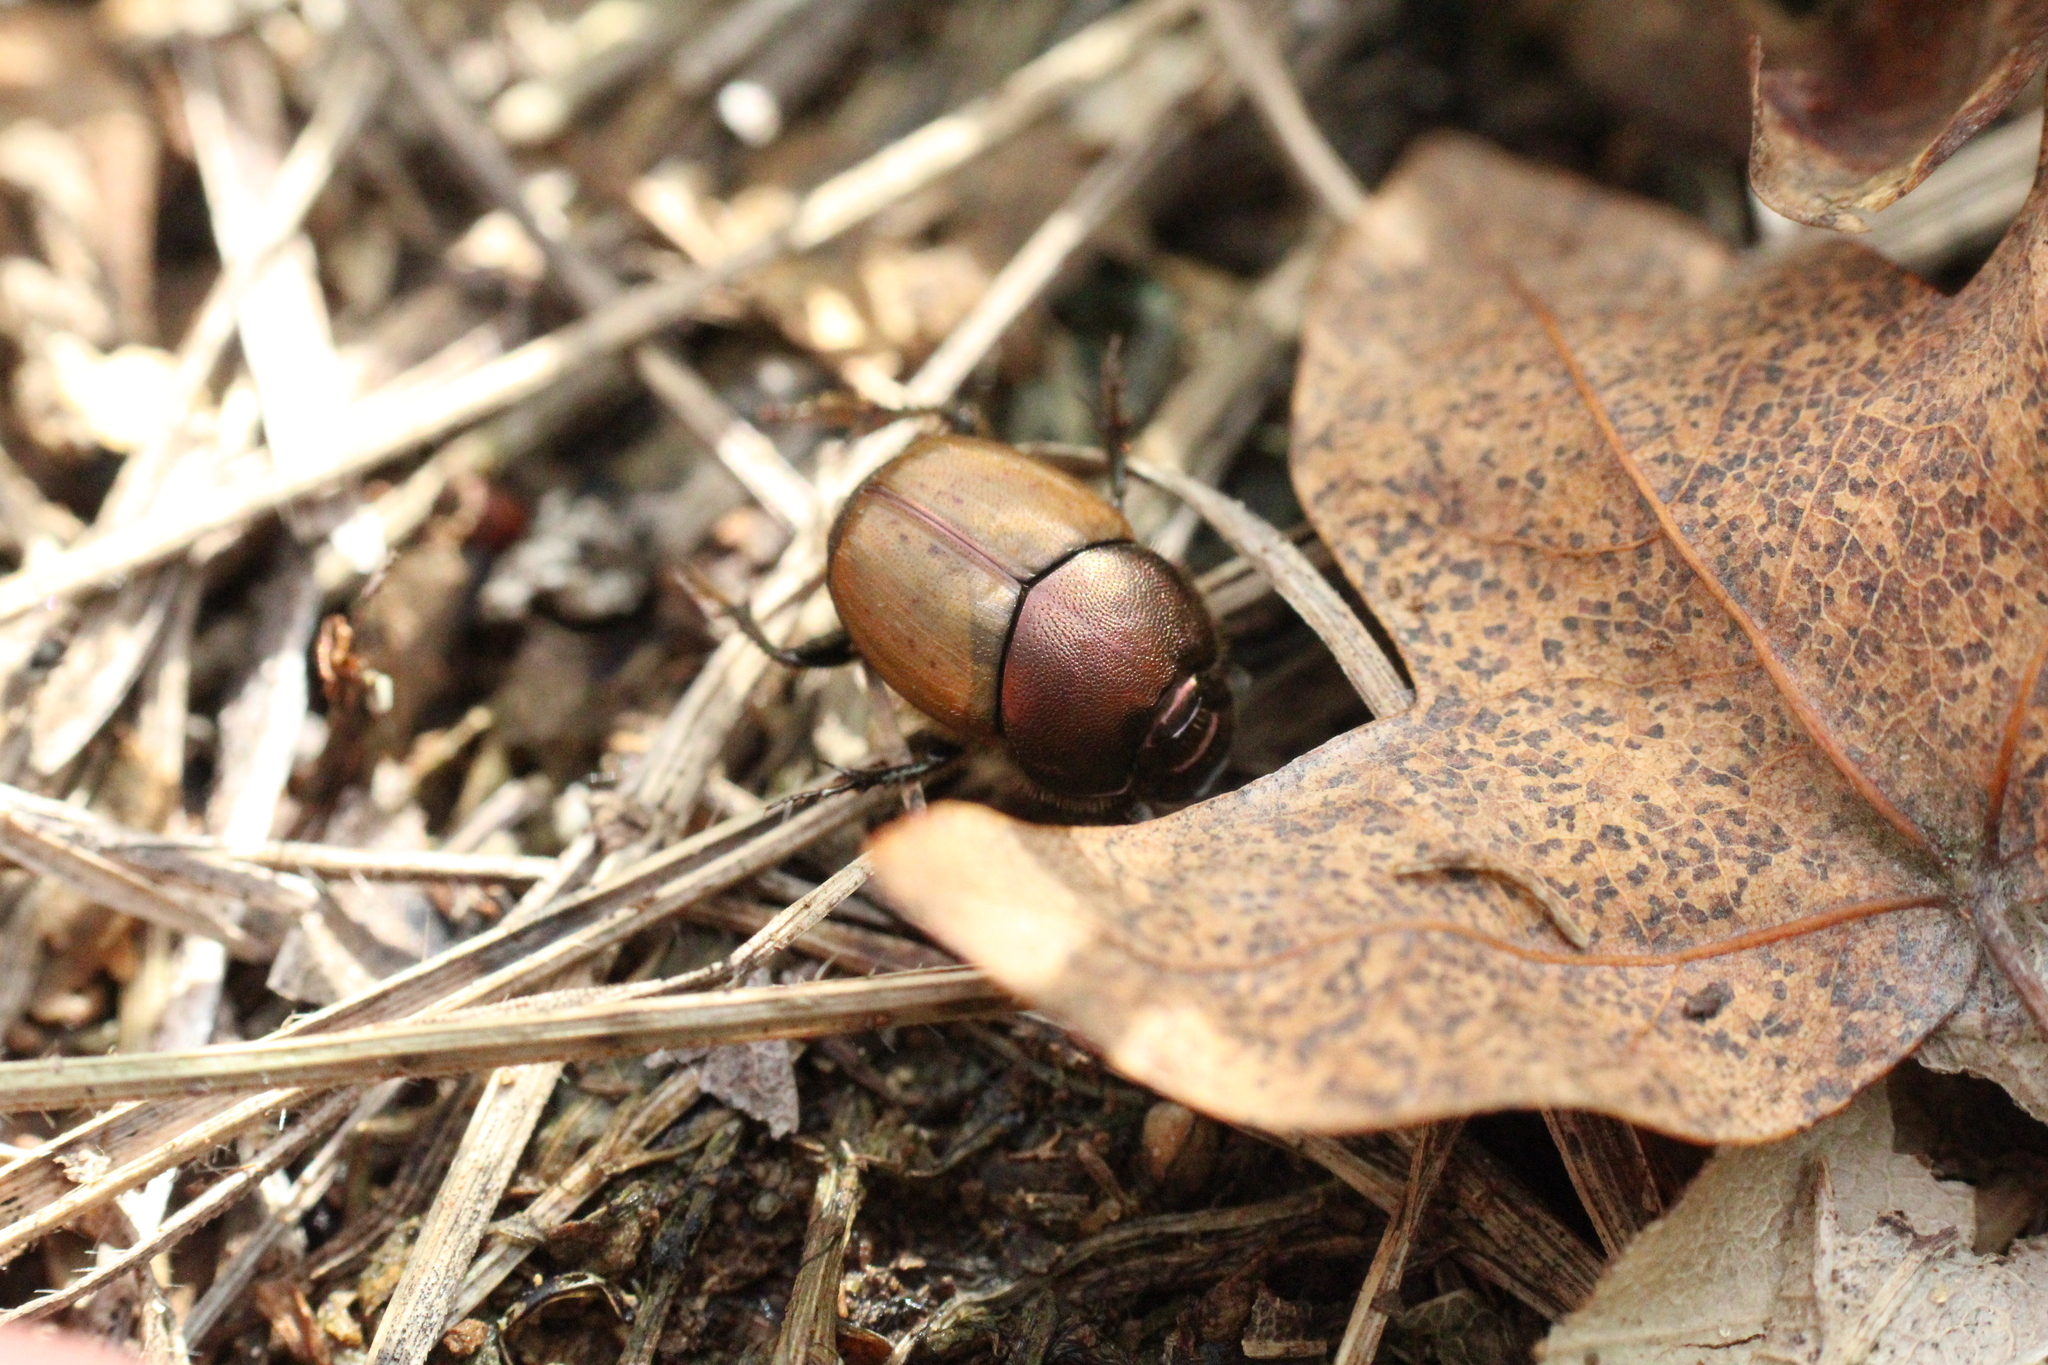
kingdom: Animalia
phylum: Arthropoda
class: Insecta
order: Coleoptera
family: Scarabaeidae
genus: Onthophagus
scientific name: Onthophagus coenobita
